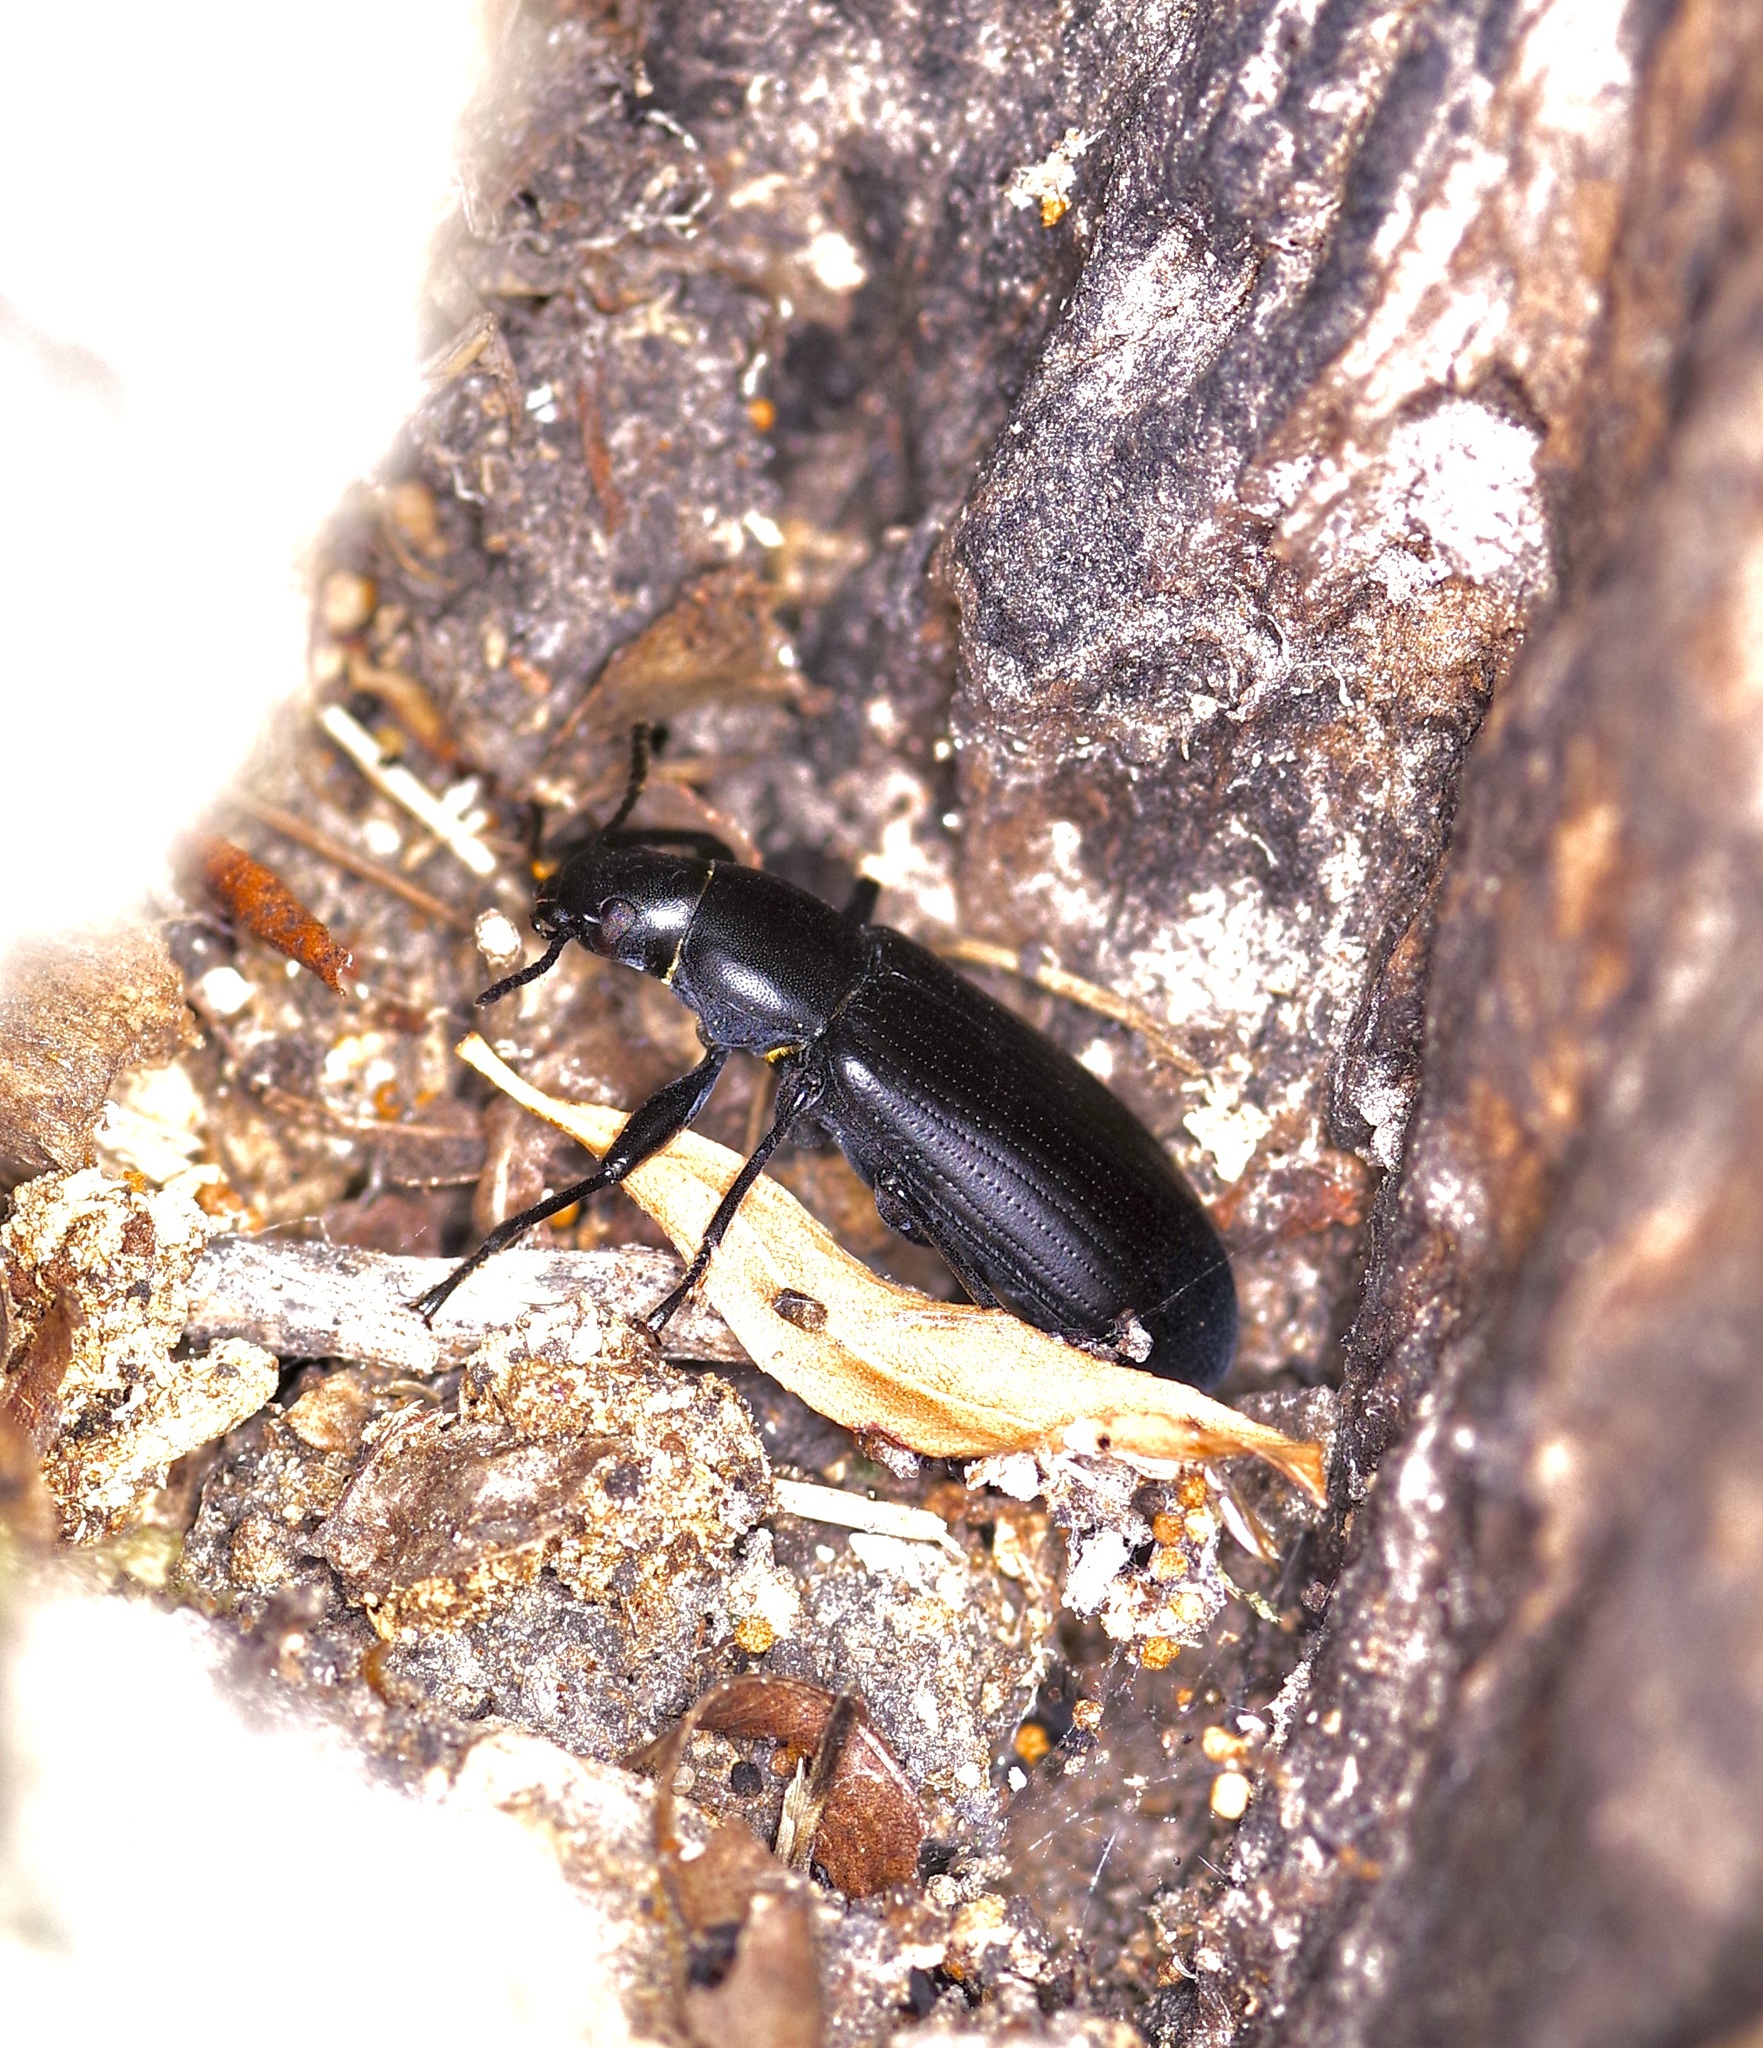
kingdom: Animalia
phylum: Arthropoda
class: Insecta
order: Coleoptera
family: Tenebrionidae
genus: Alobates
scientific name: Alobates
